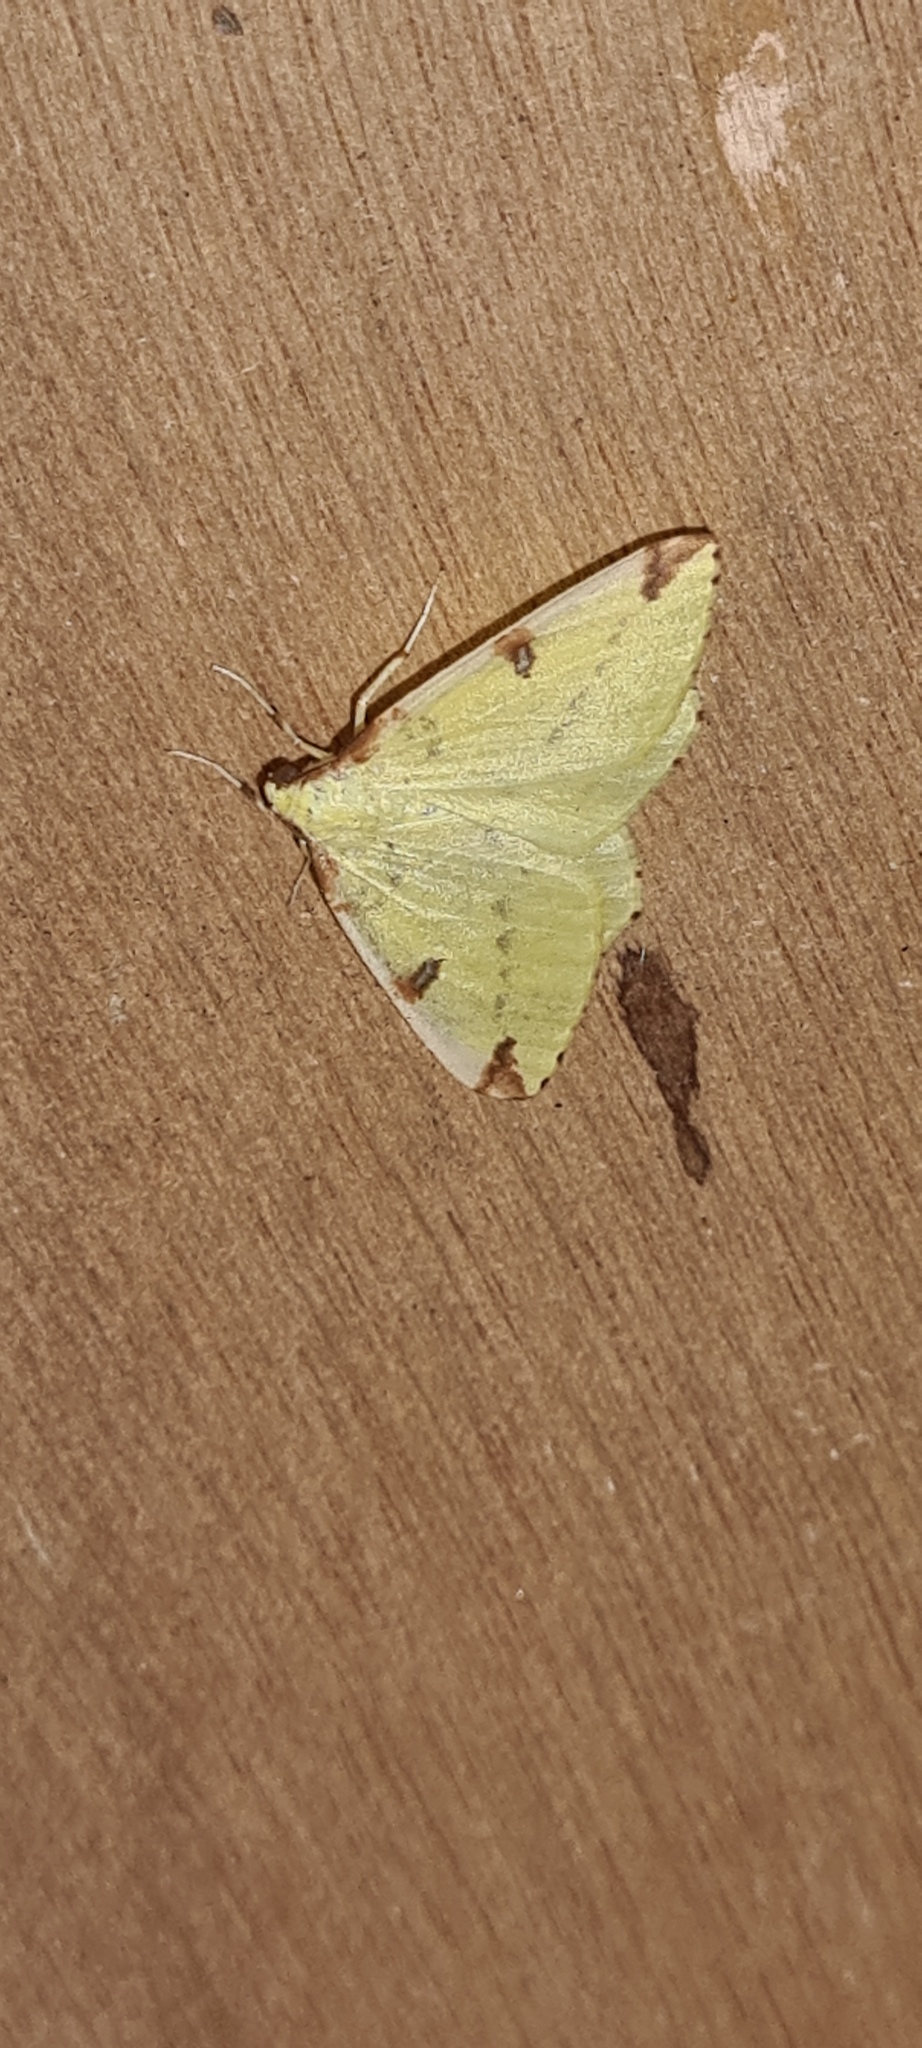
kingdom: Animalia
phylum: Arthropoda
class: Insecta
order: Lepidoptera
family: Geometridae
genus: Opisthograptis
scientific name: Opisthograptis luteolata
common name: Brimstone moth
